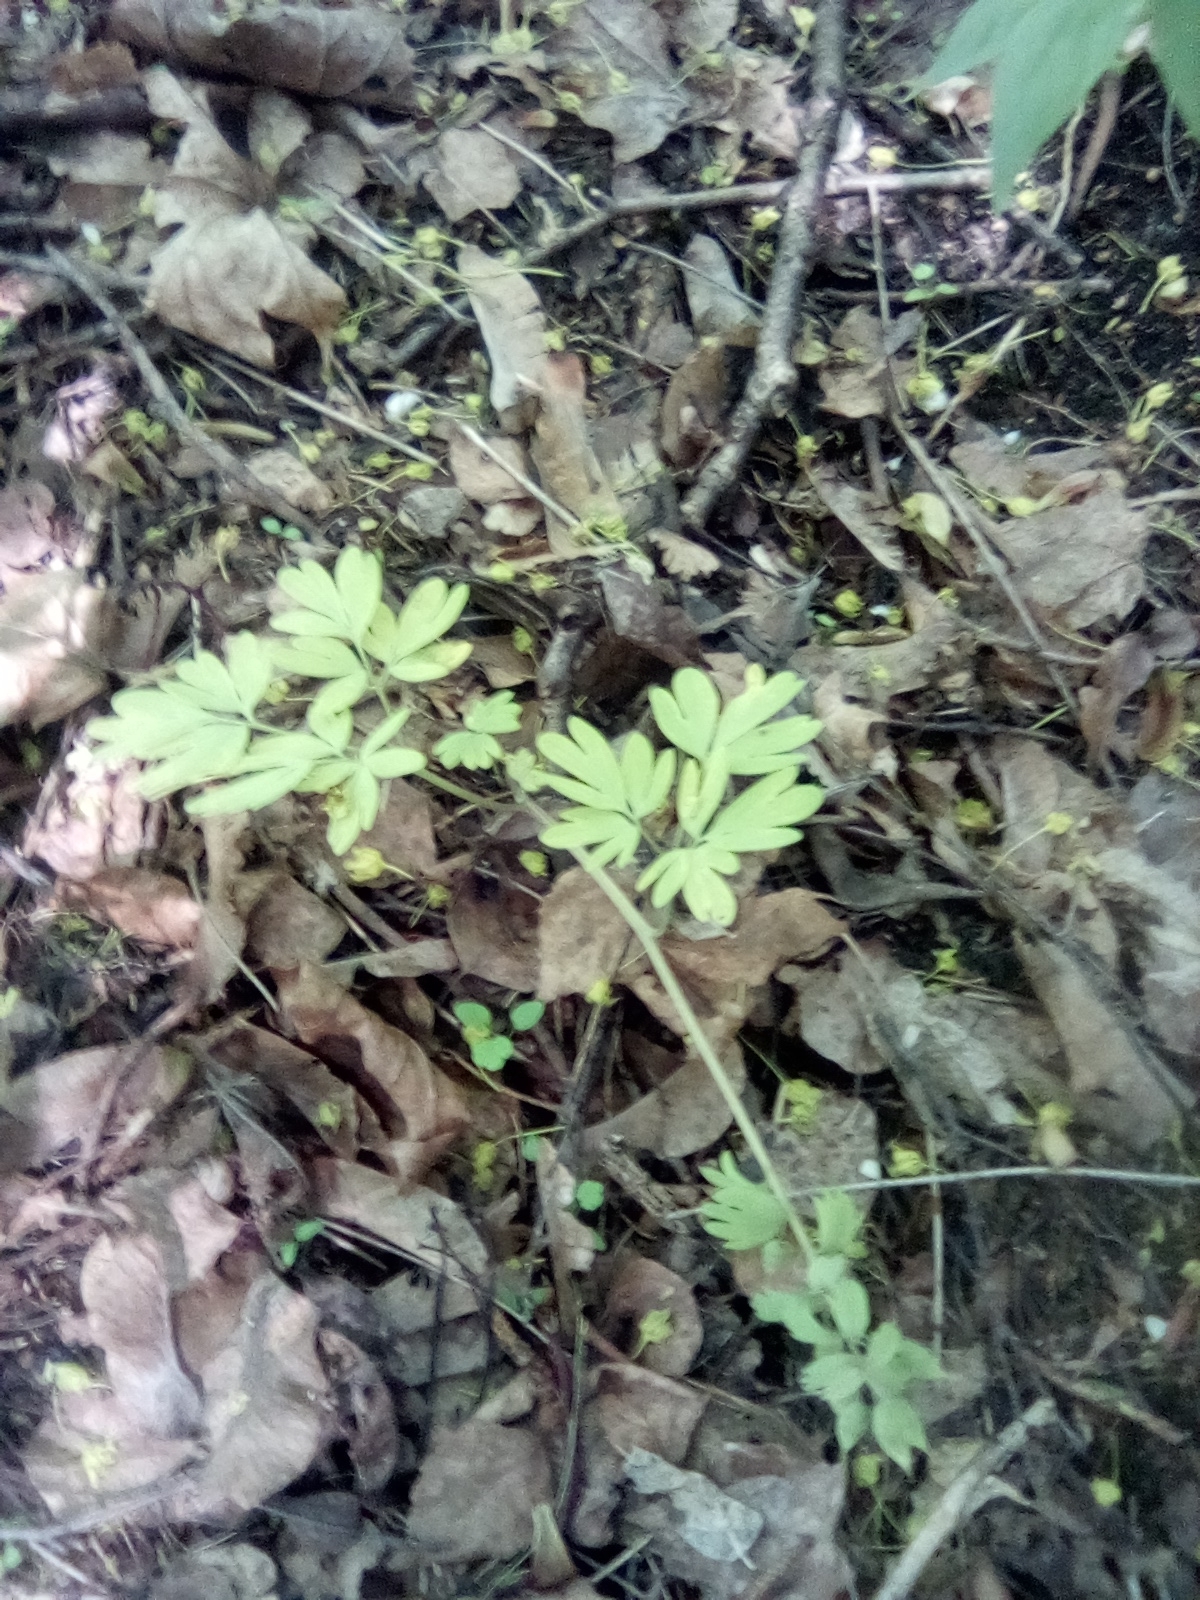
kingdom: Plantae
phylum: Tracheophyta
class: Magnoliopsida
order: Ranunculales
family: Papaveraceae
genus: Corydalis
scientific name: Corydalis solida
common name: Bird-in-a-bush
